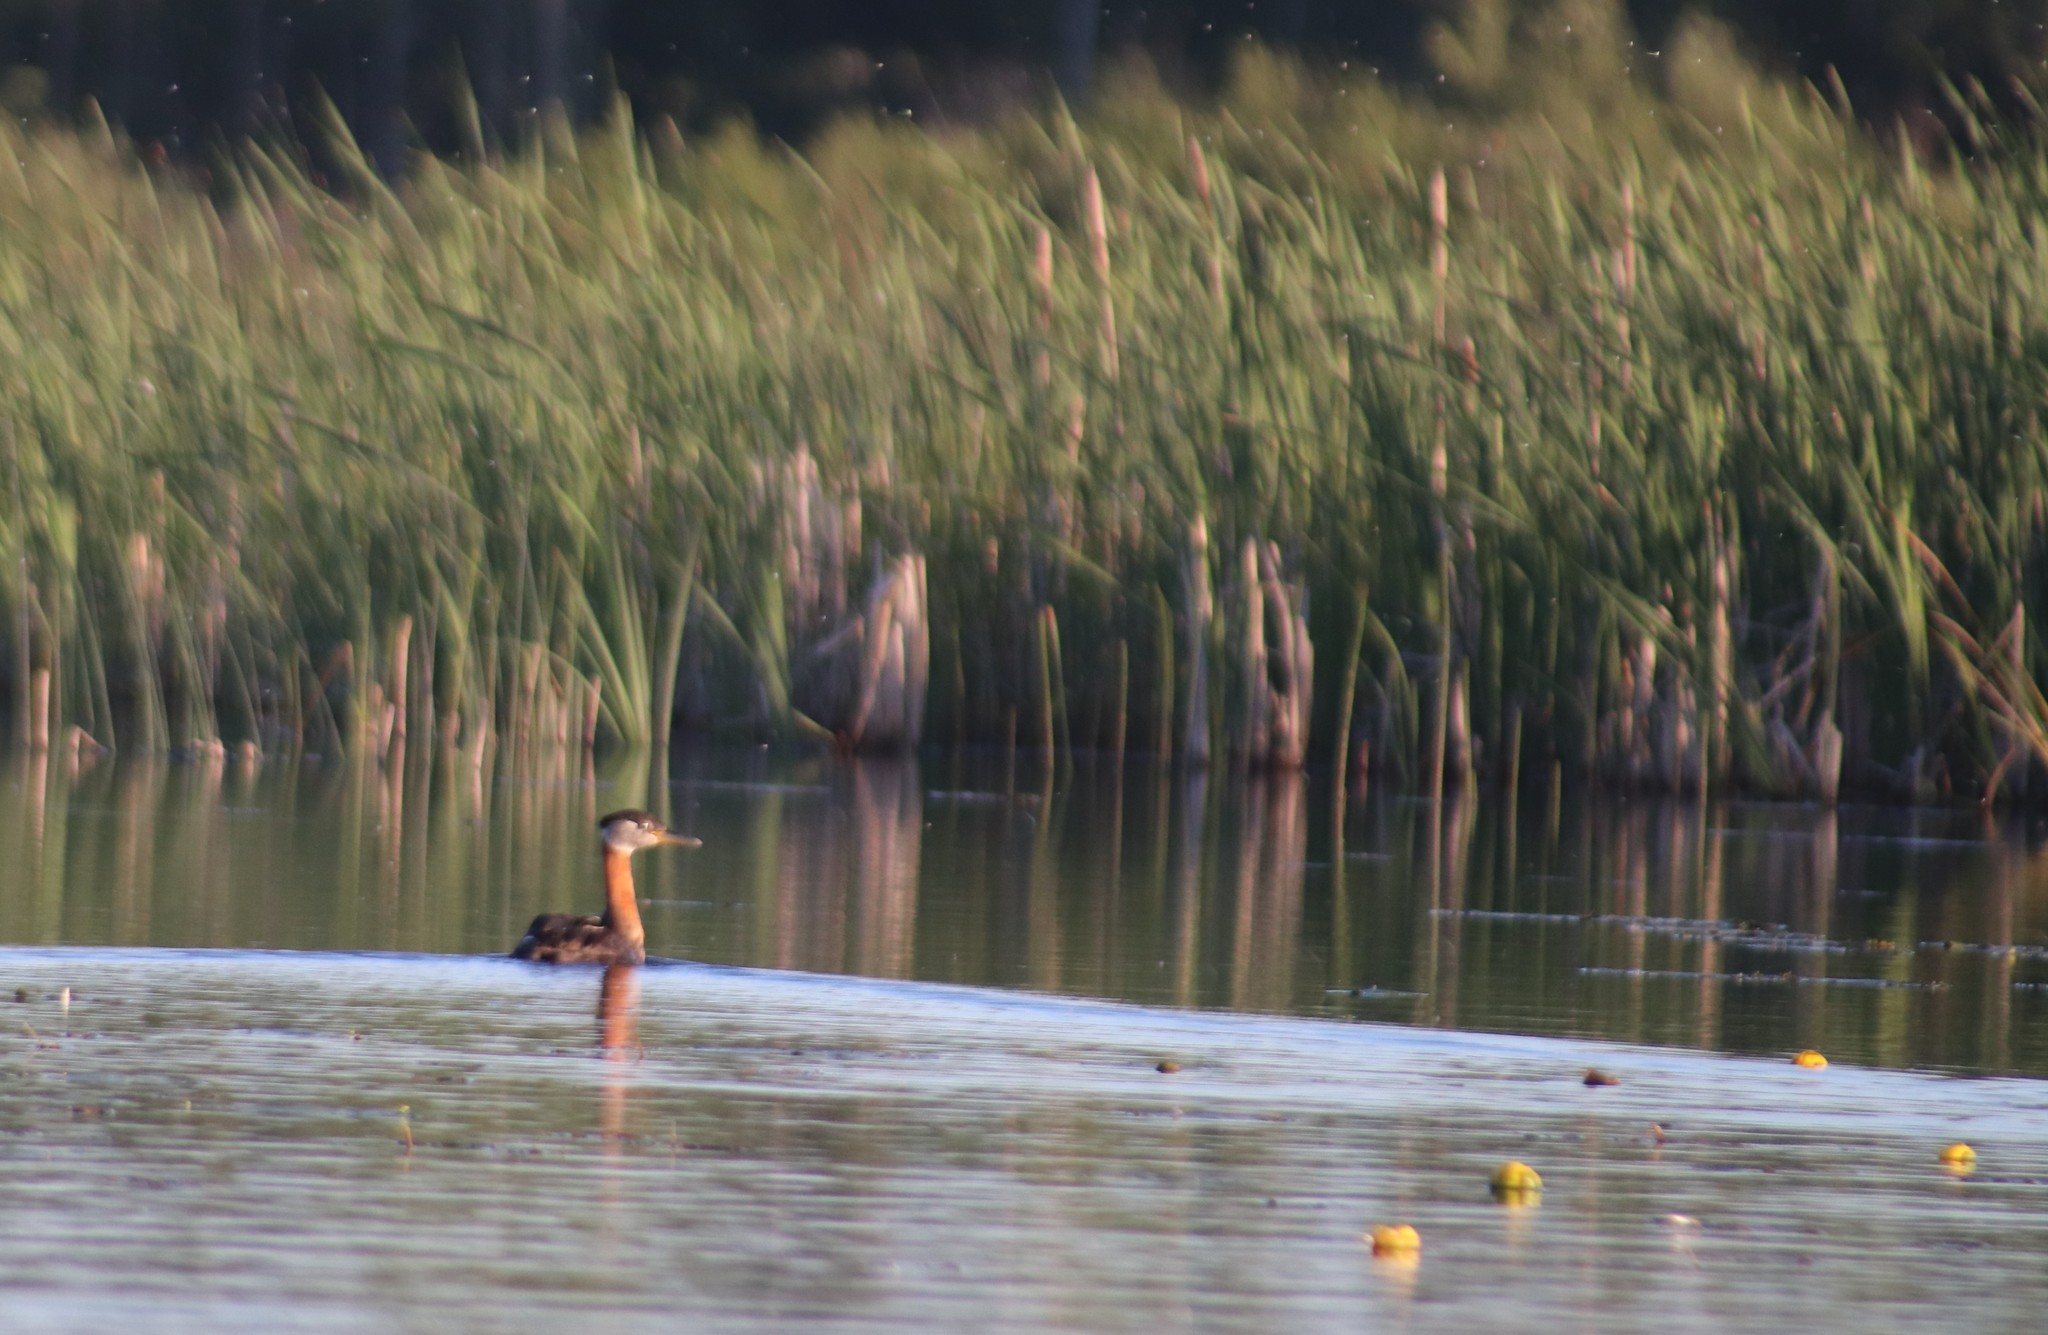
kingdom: Animalia
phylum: Chordata
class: Aves
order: Podicipediformes
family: Podicipedidae
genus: Podiceps
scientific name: Podiceps grisegena
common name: Red-necked grebe
